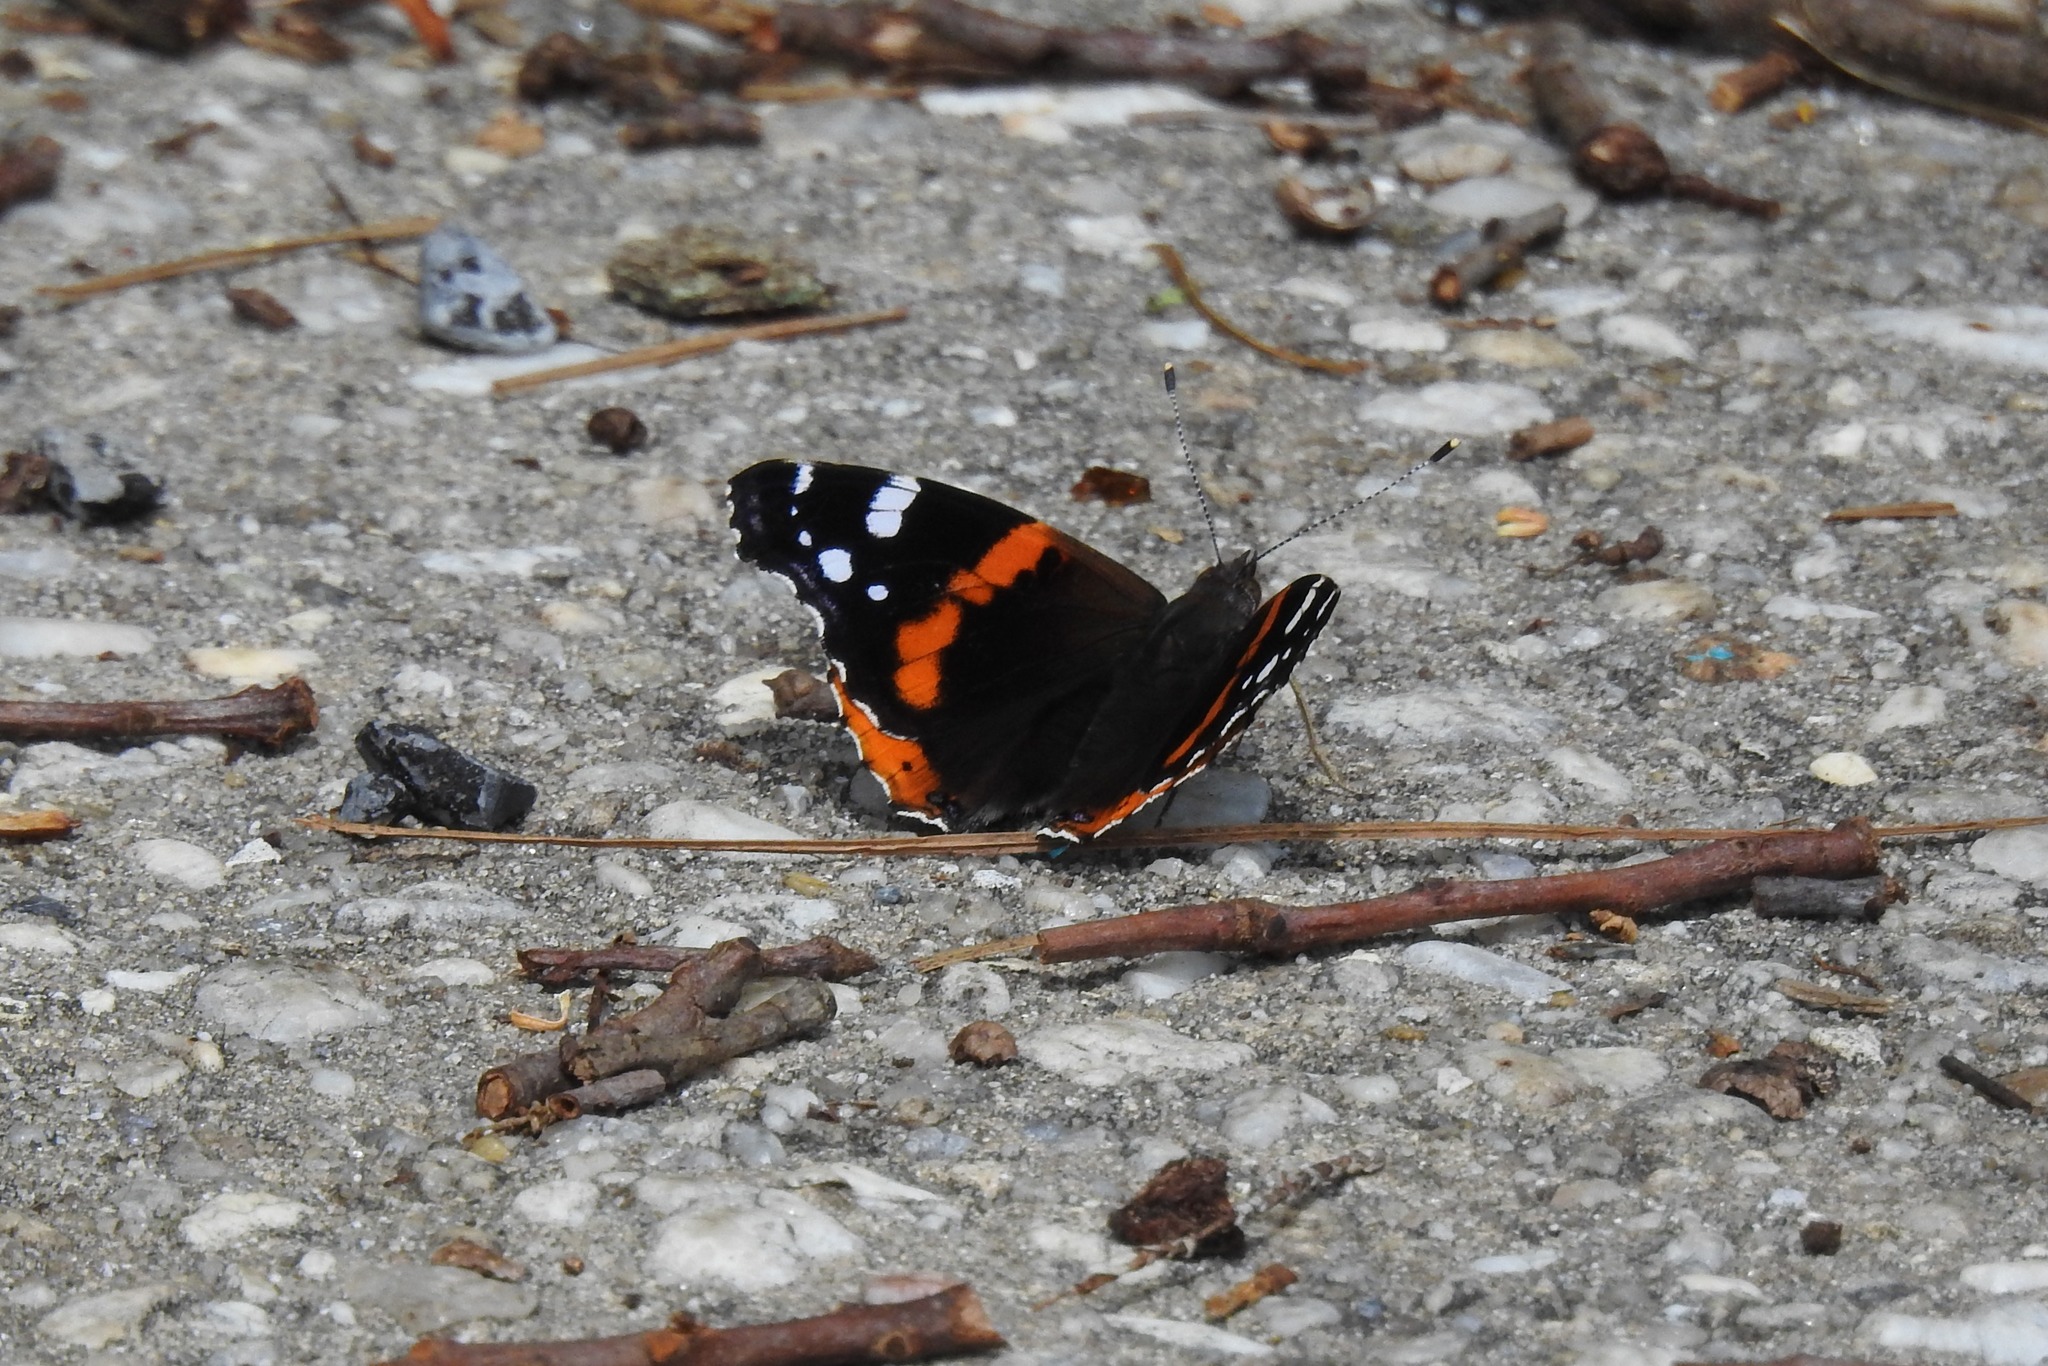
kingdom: Animalia
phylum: Arthropoda
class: Insecta
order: Lepidoptera
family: Nymphalidae
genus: Vanessa
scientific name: Vanessa atalanta
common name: Red admiral
